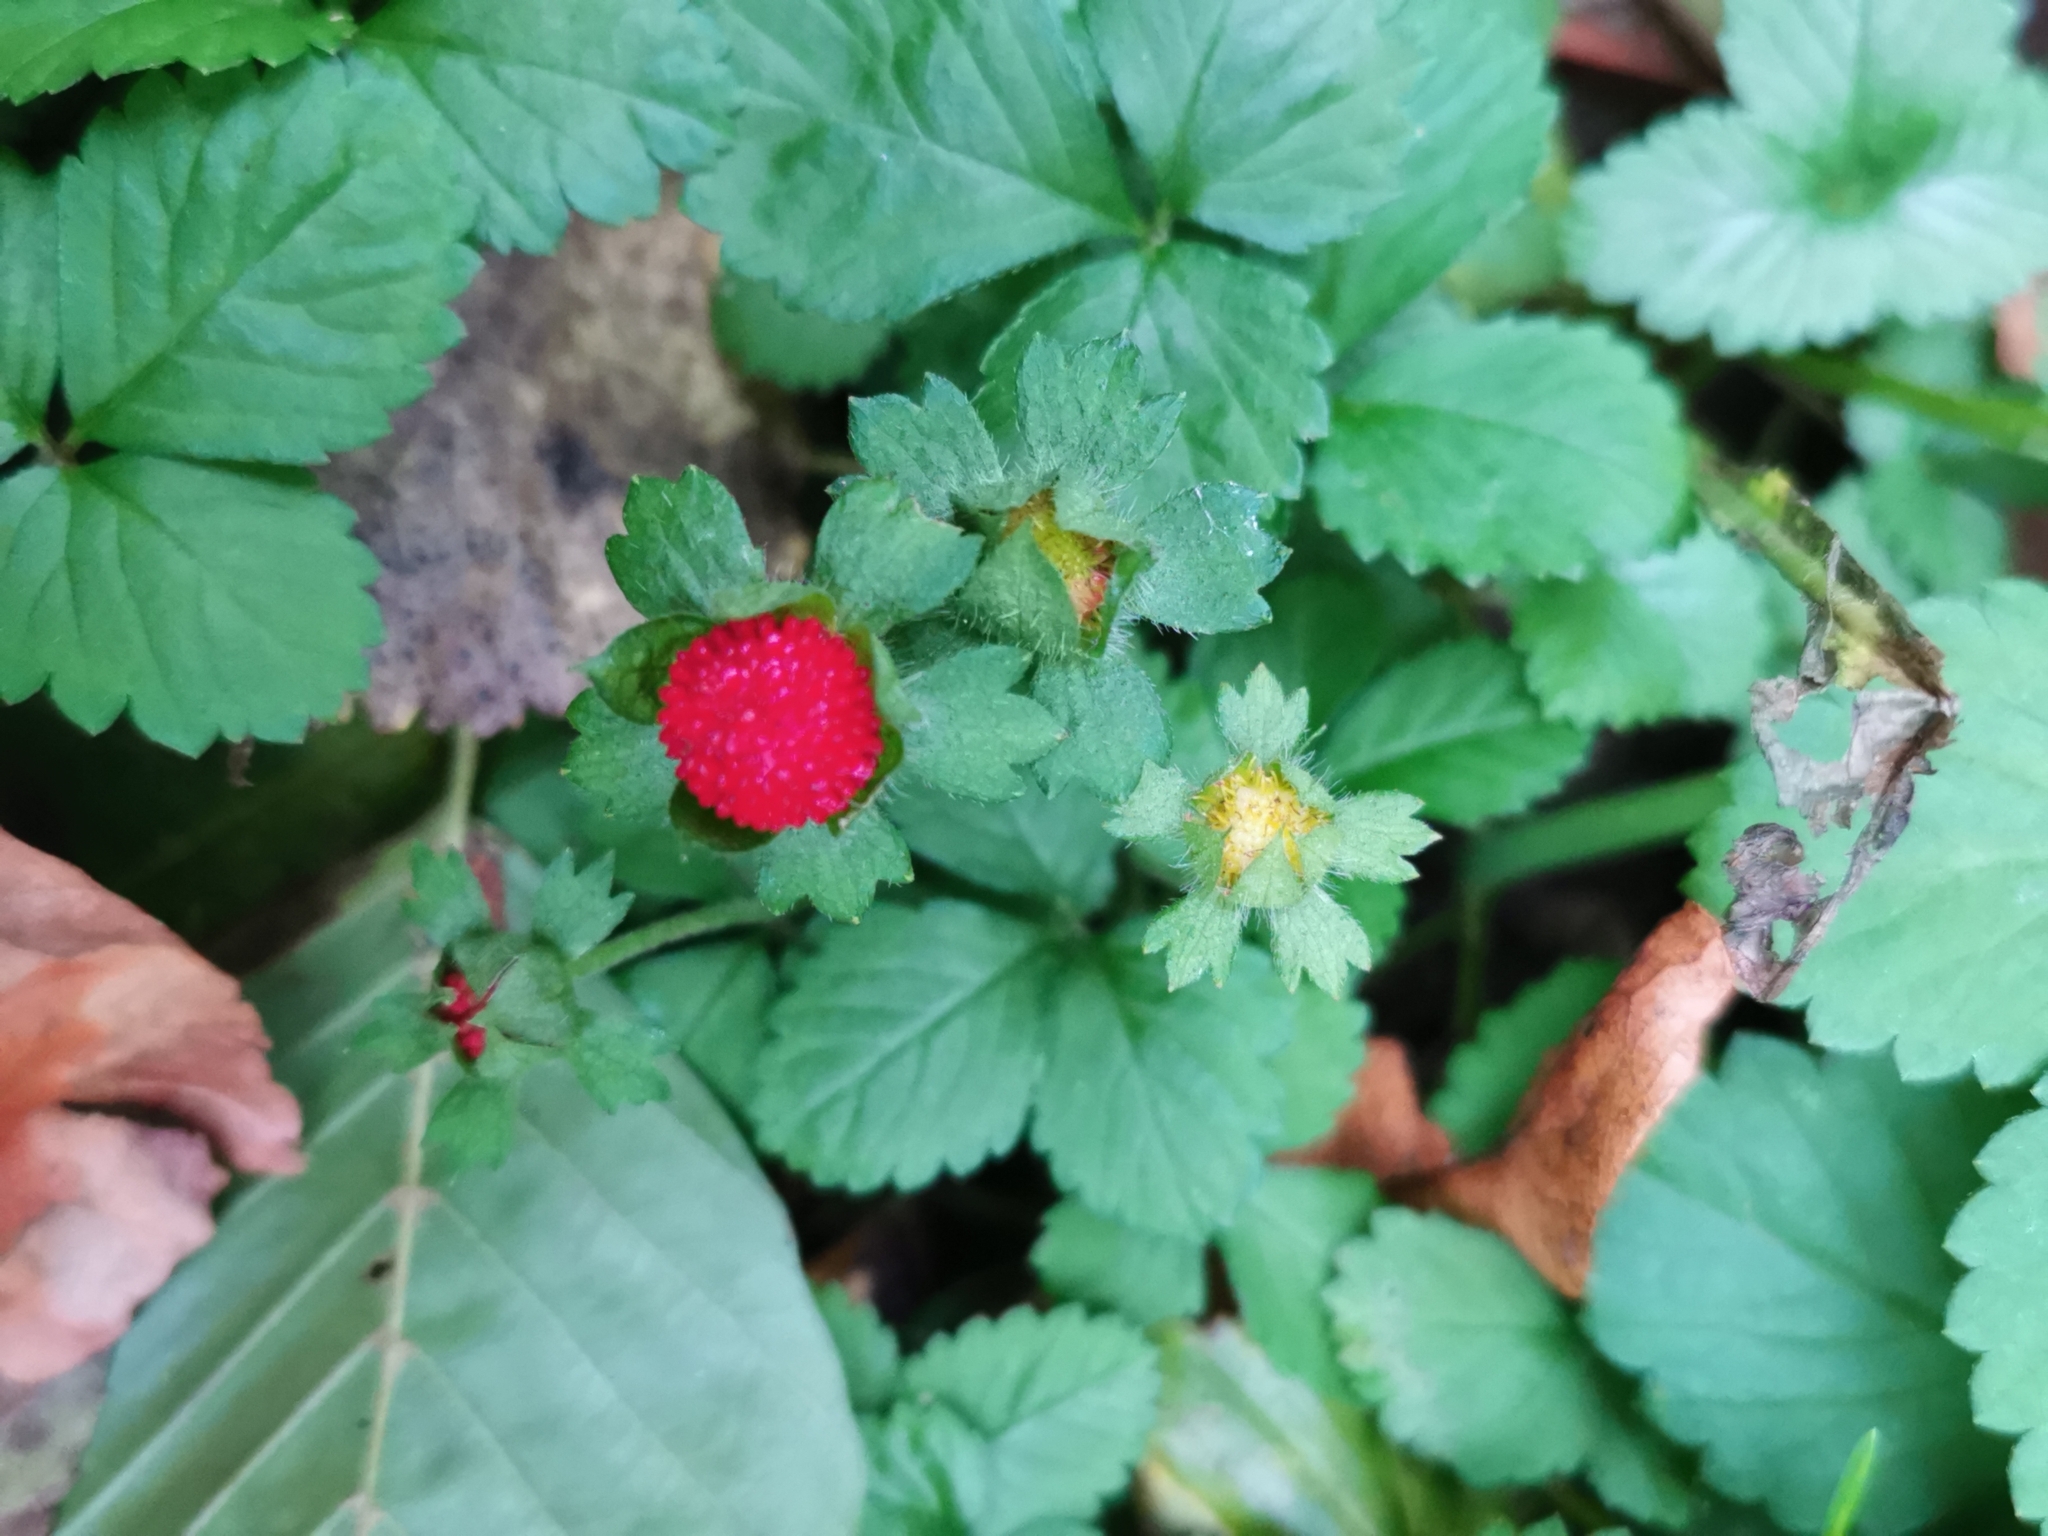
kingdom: Plantae
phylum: Tracheophyta
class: Magnoliopsida
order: Rosales
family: Rosaceae
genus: Fragaria
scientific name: Fragaria vesca
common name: Wild strawberry
